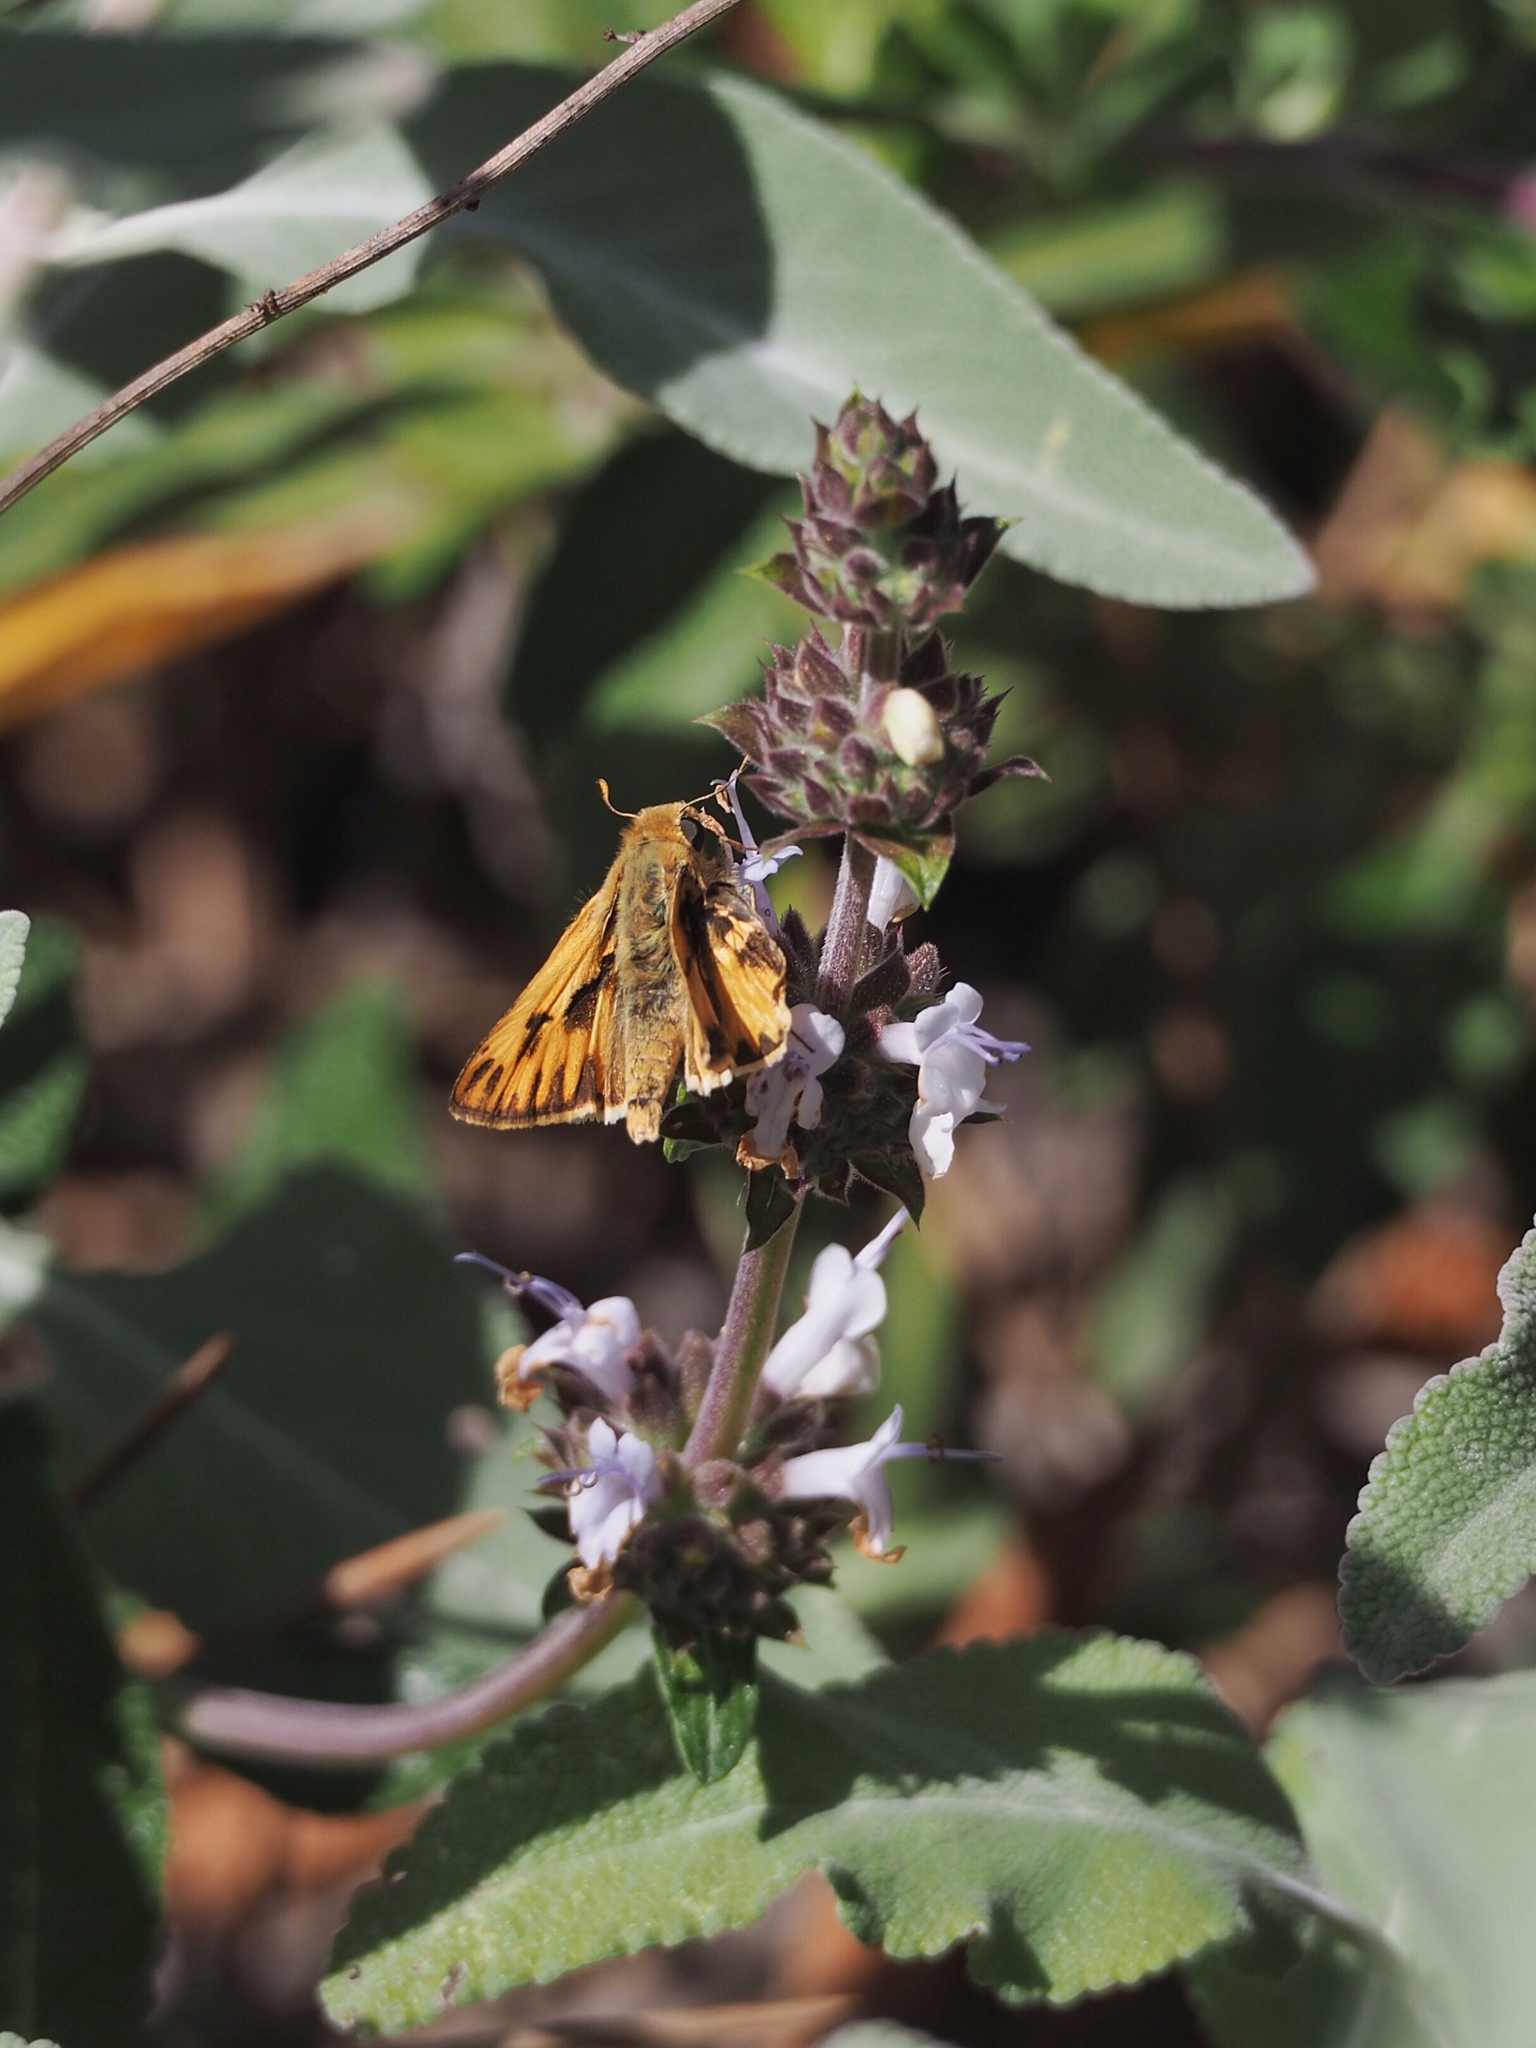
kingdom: Animalia
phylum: Arthropoda
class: Insecta
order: Lepidoptera
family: Hesperiidae
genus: Hylephila
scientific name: Hylephila phyleus
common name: Fiery skipper
